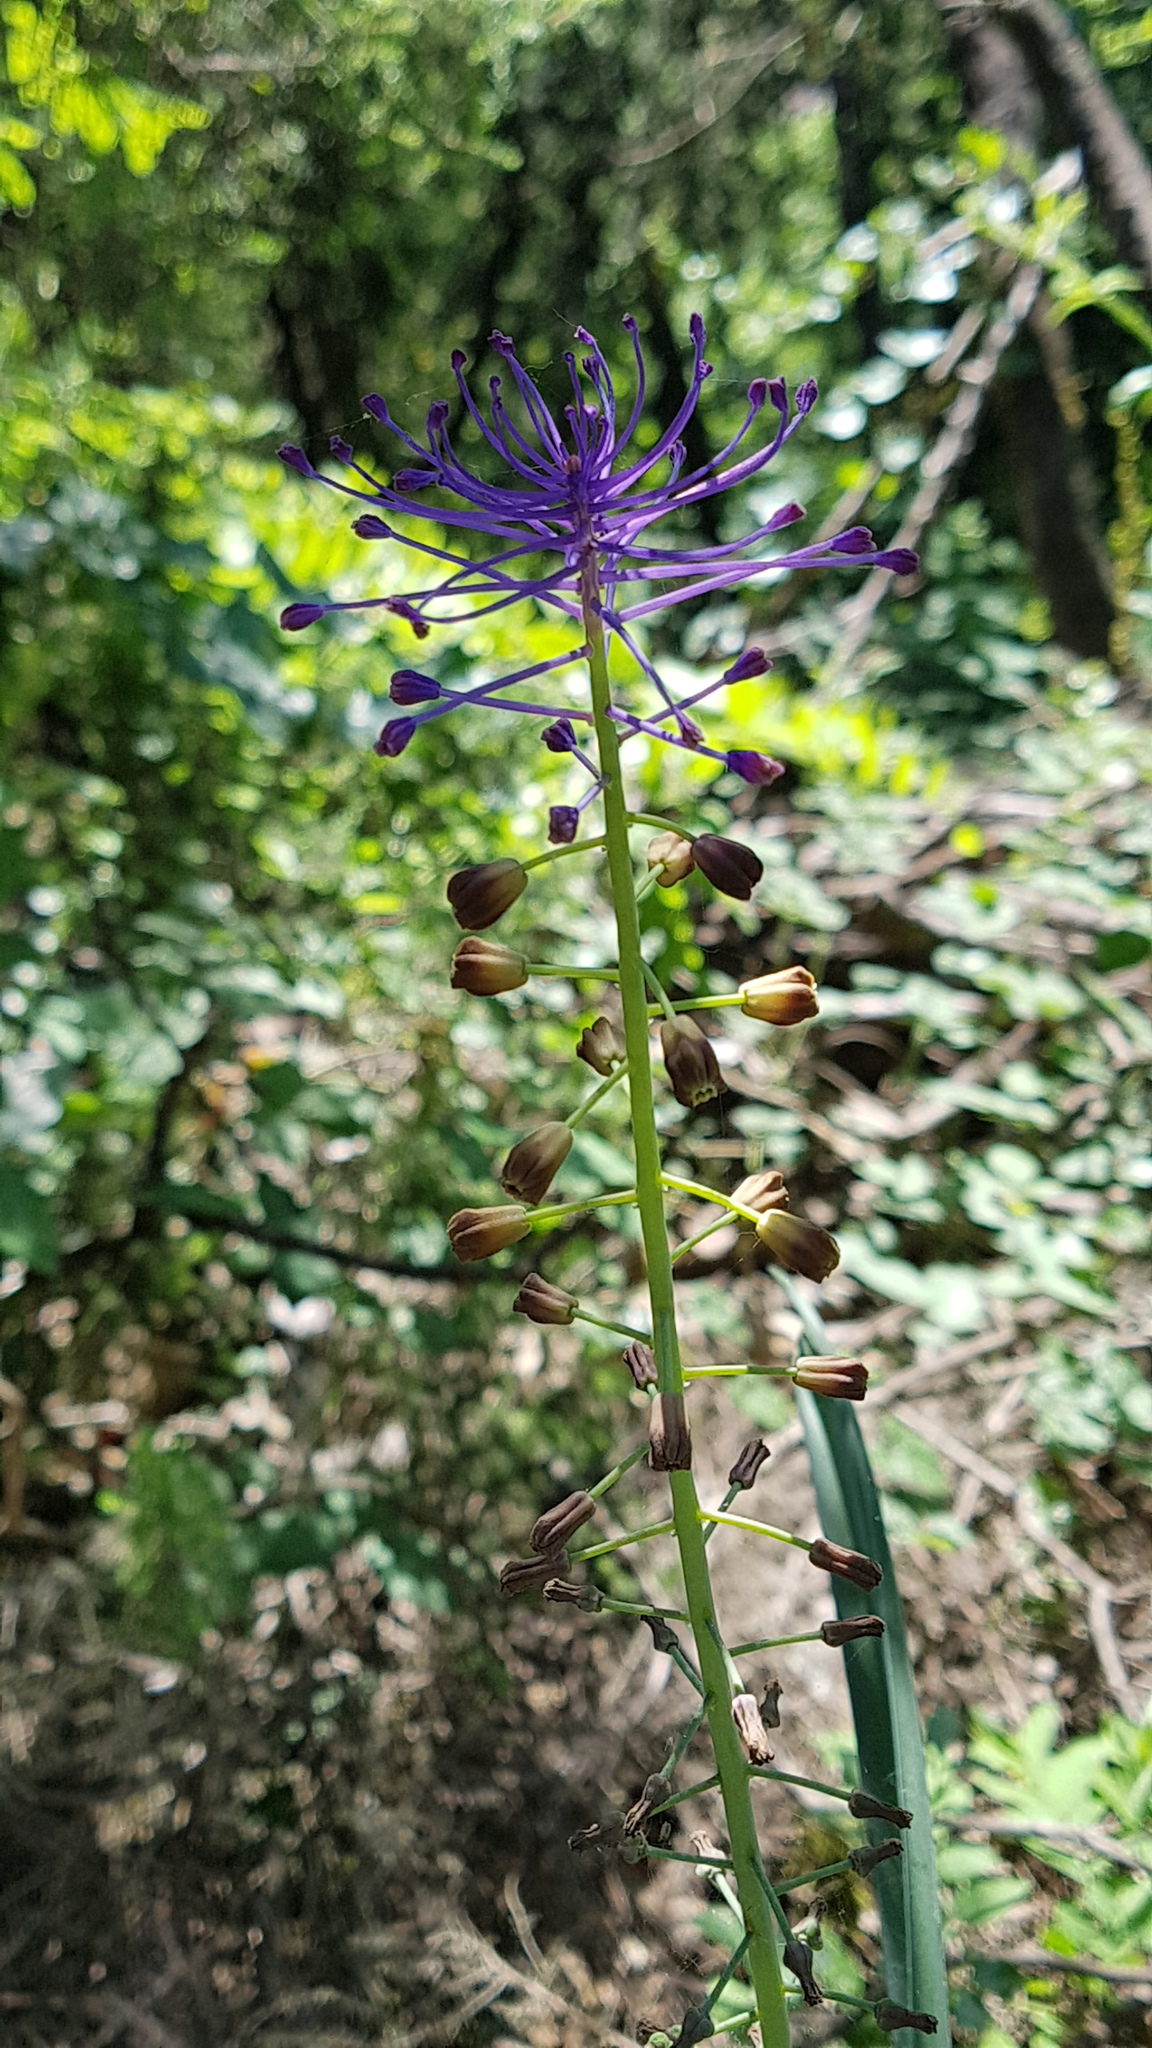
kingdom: Plantae
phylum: Tracheophyta
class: Liliopsida
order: Asparagales
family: Asparagaceae
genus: Muscari
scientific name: Muscari comosum
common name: Tassel hyacinth
